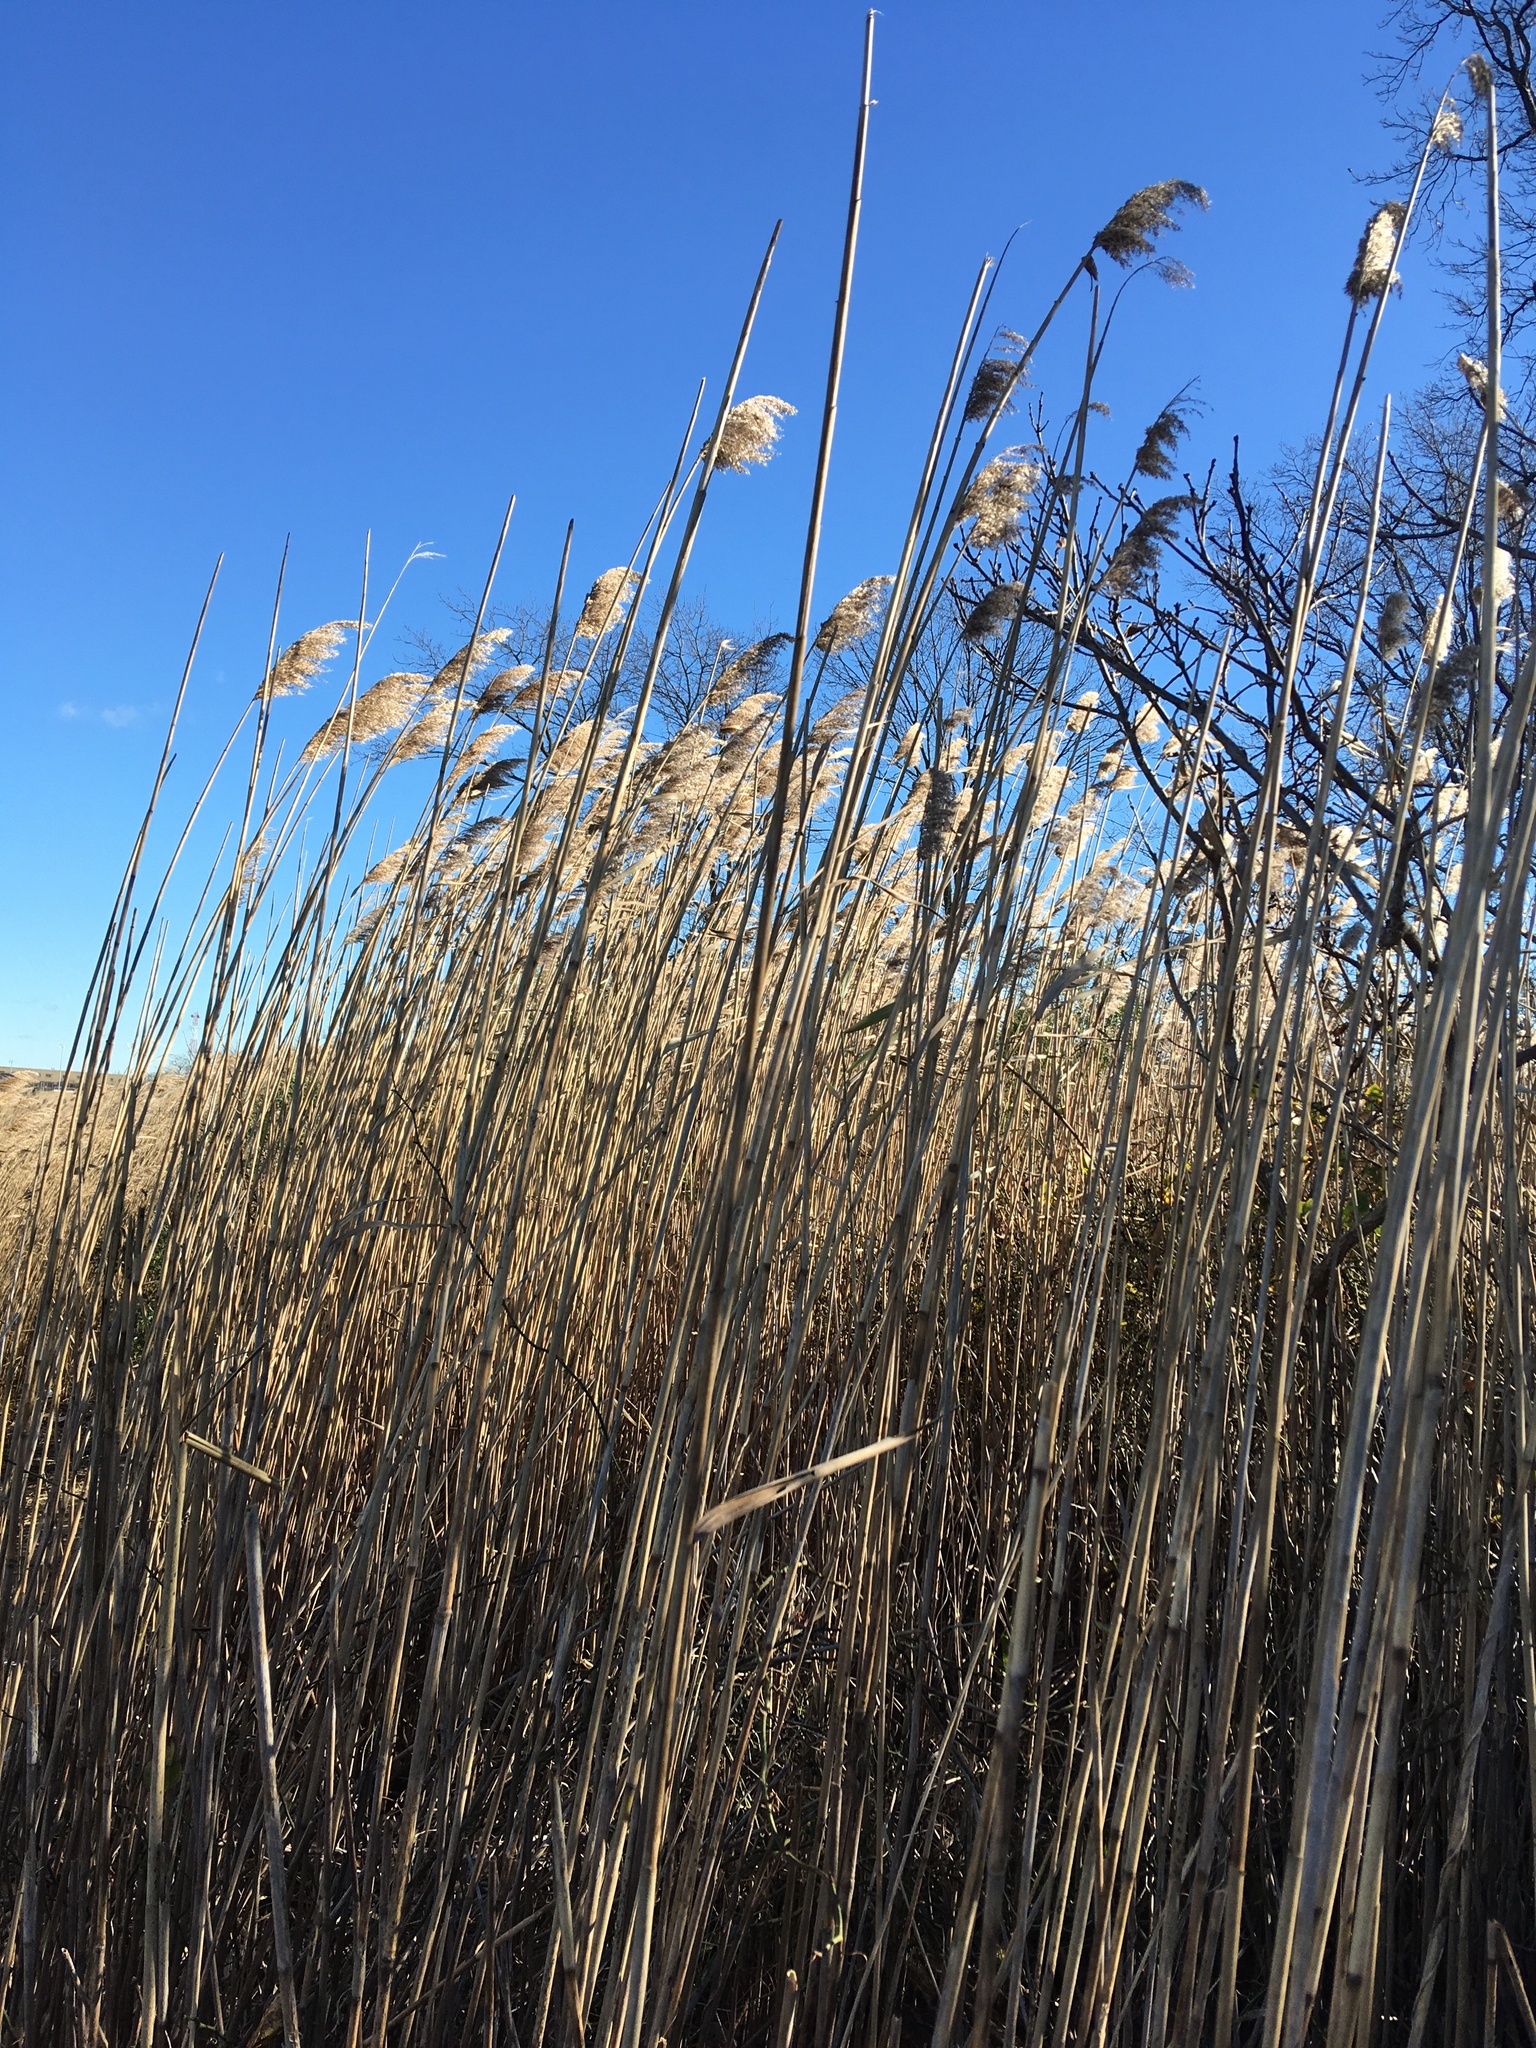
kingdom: Plantae
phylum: Tracheophyta
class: Liliopsida
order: Poales
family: Poaceae
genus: Phragmites
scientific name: Phragmites australis
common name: Common reed
